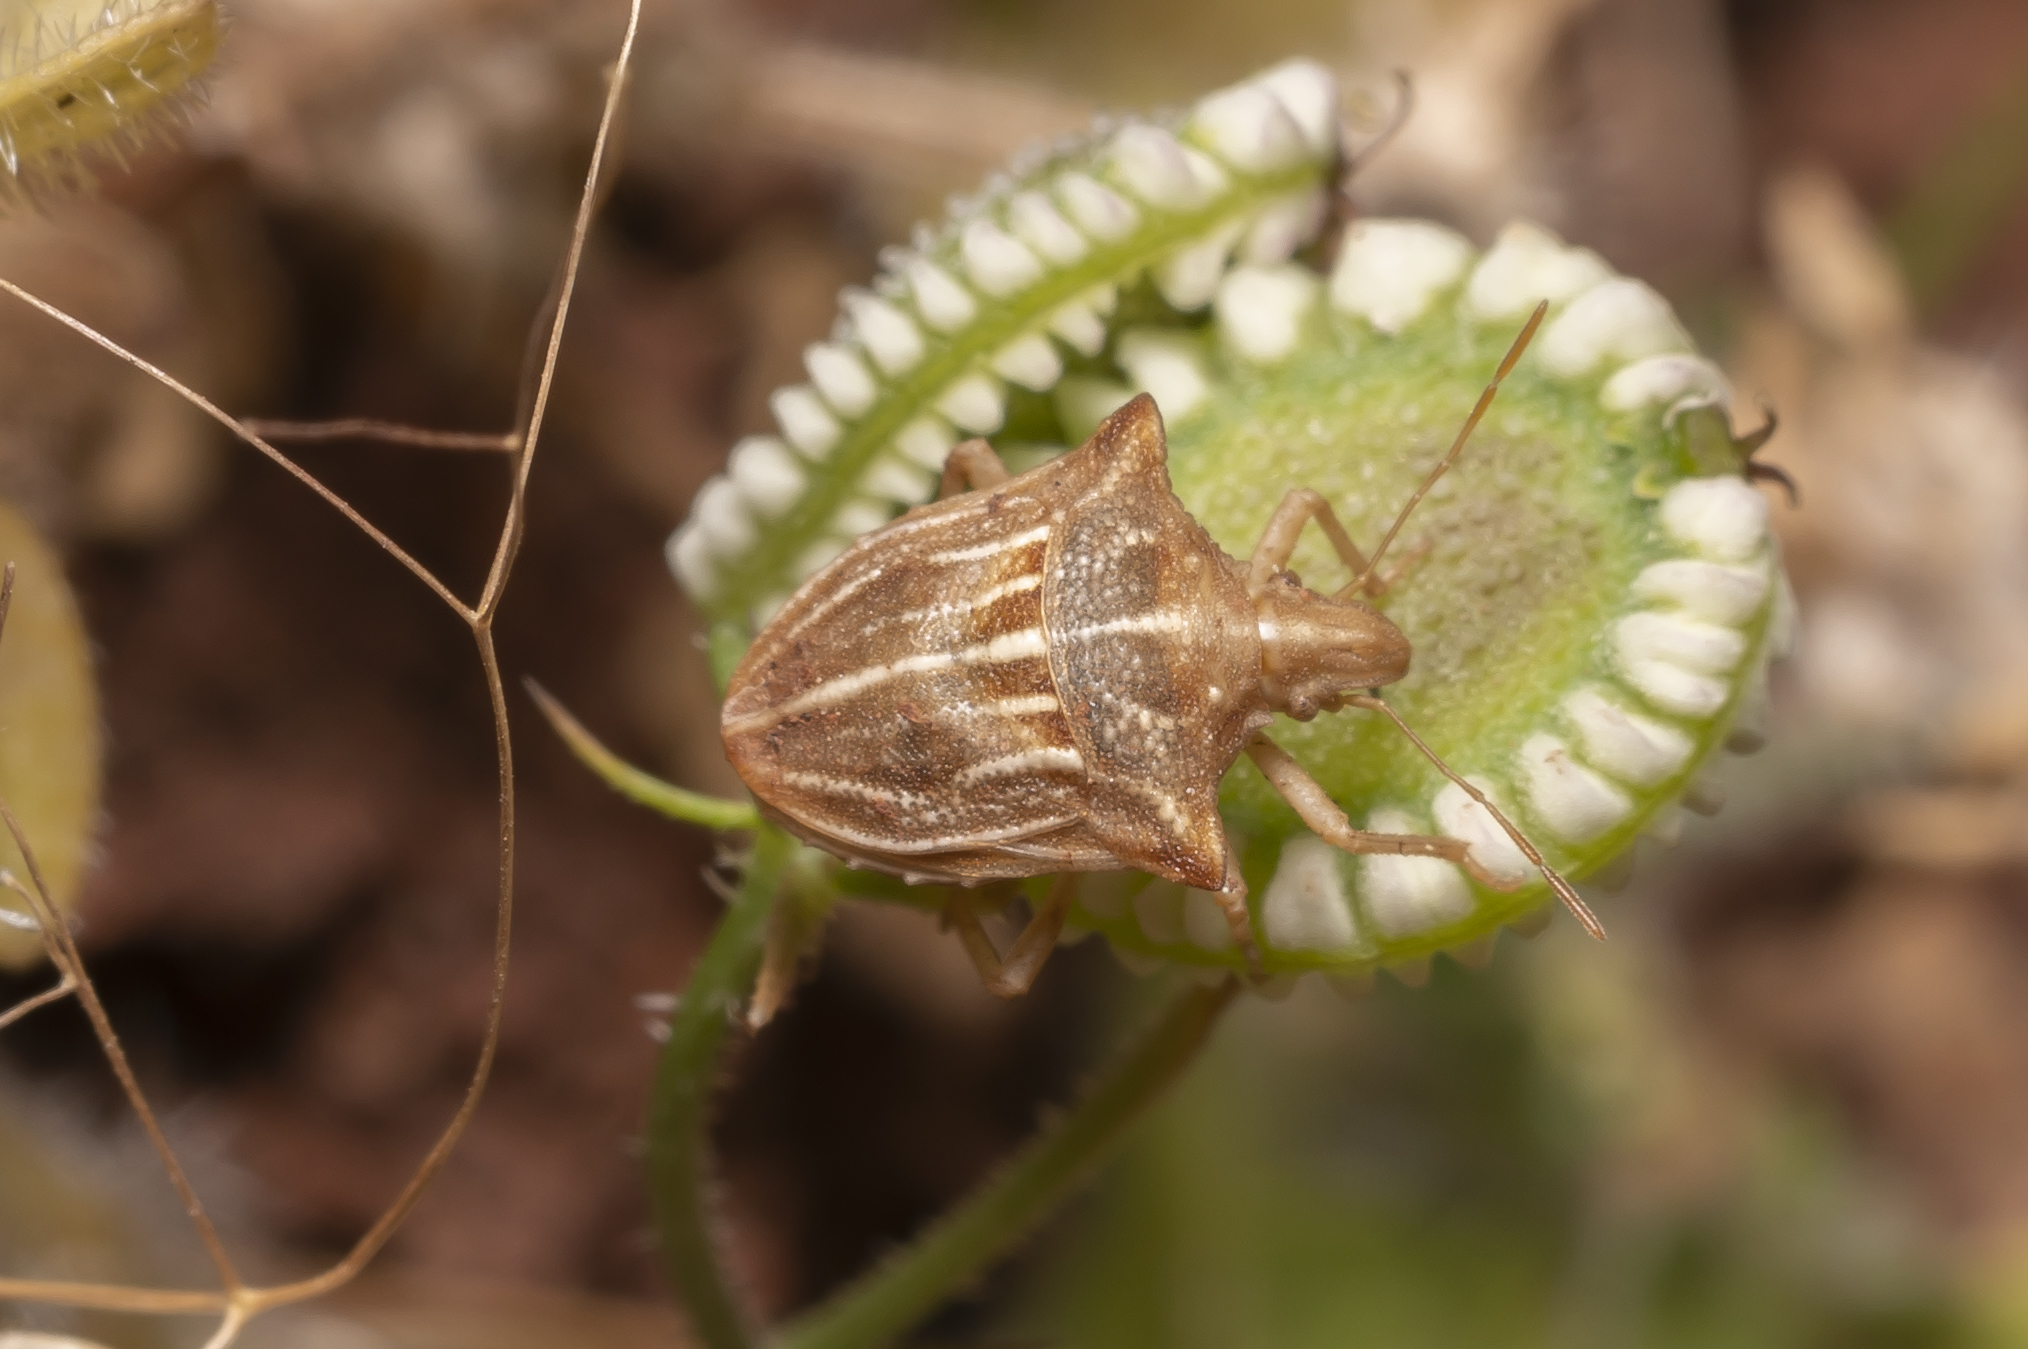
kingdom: Animalia
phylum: Arthropoda
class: Insecta
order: Hemiptera
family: Pentatomidae
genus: Ancyrosoma
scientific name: Ancyrosoma leucogrammes
